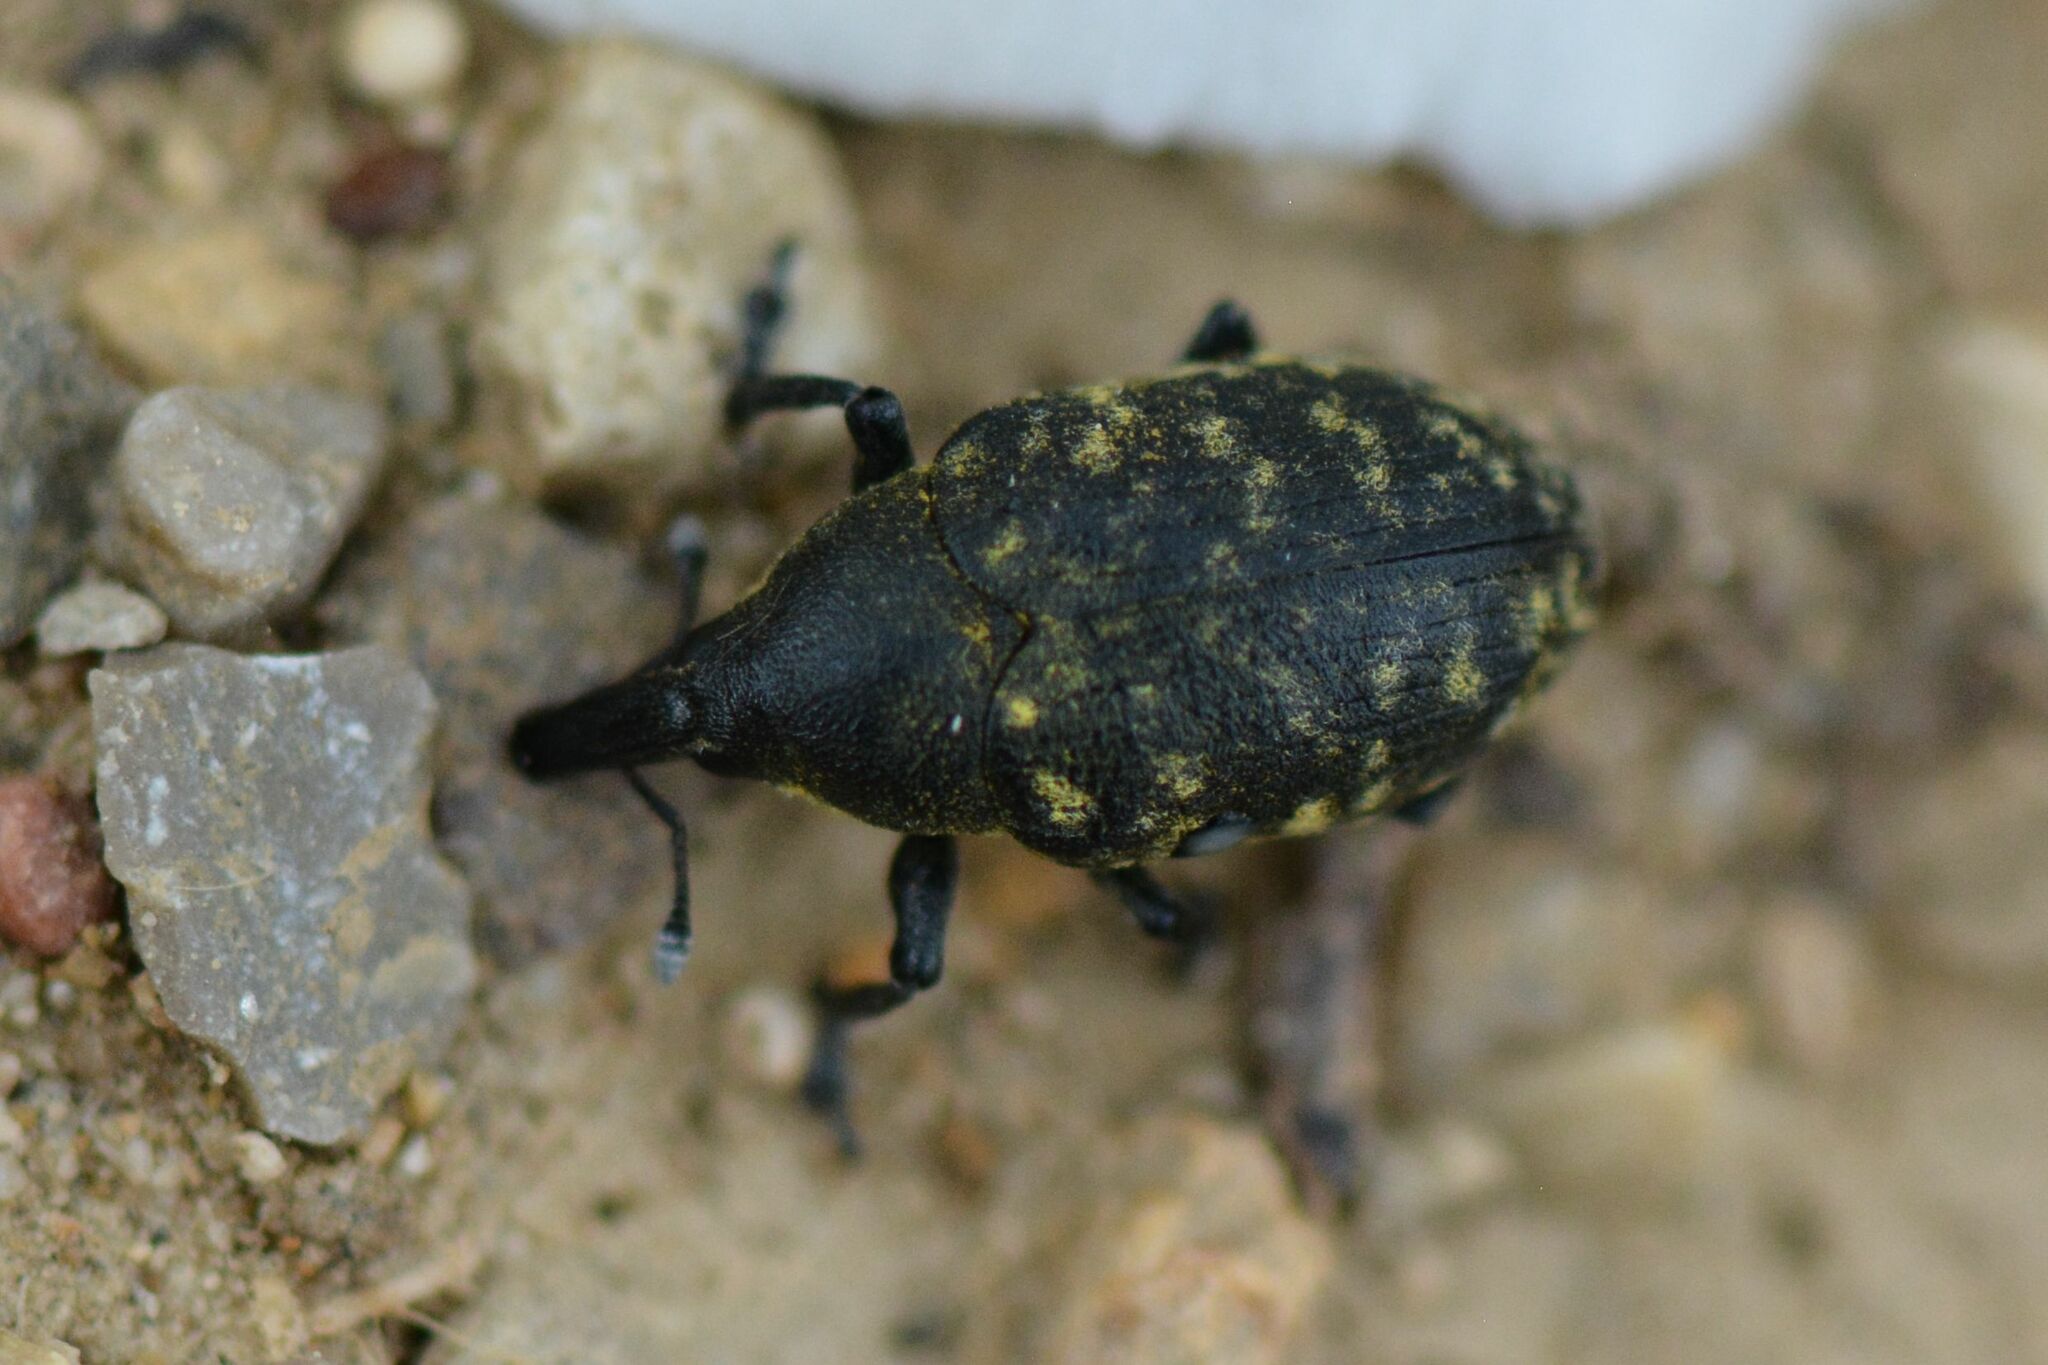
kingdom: Animalia
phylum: Arthropoda
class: Insecta
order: Coleoptera
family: Curculionidae
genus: Larinus
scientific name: Larinus turbinatus
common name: Weevil
